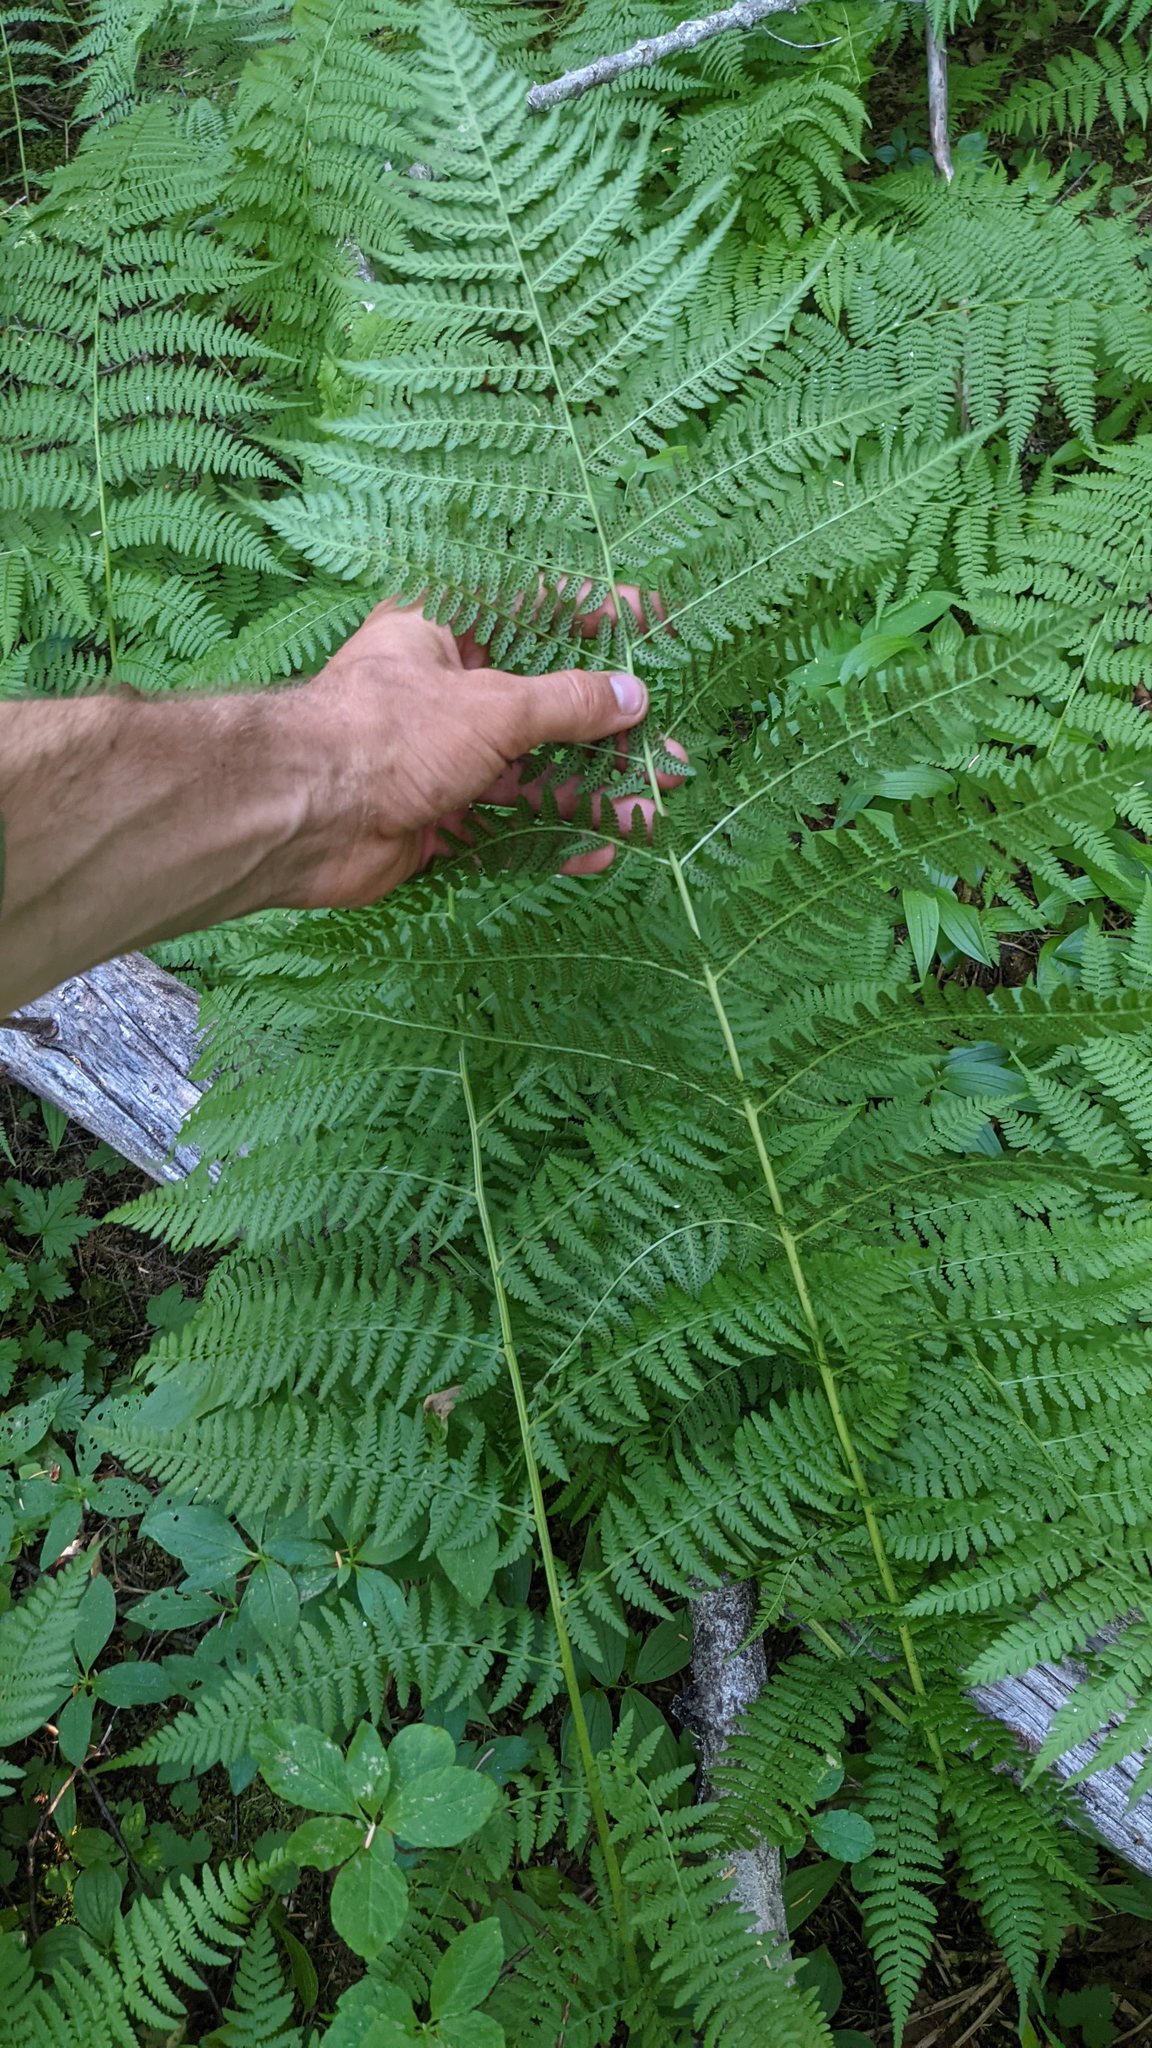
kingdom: Plantae
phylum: Tracheophyta
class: Polypodiopsida
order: Polypodiales
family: Athyriaceae
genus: Athyrium
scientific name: Athyrium filix-femina
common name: Lady fern
